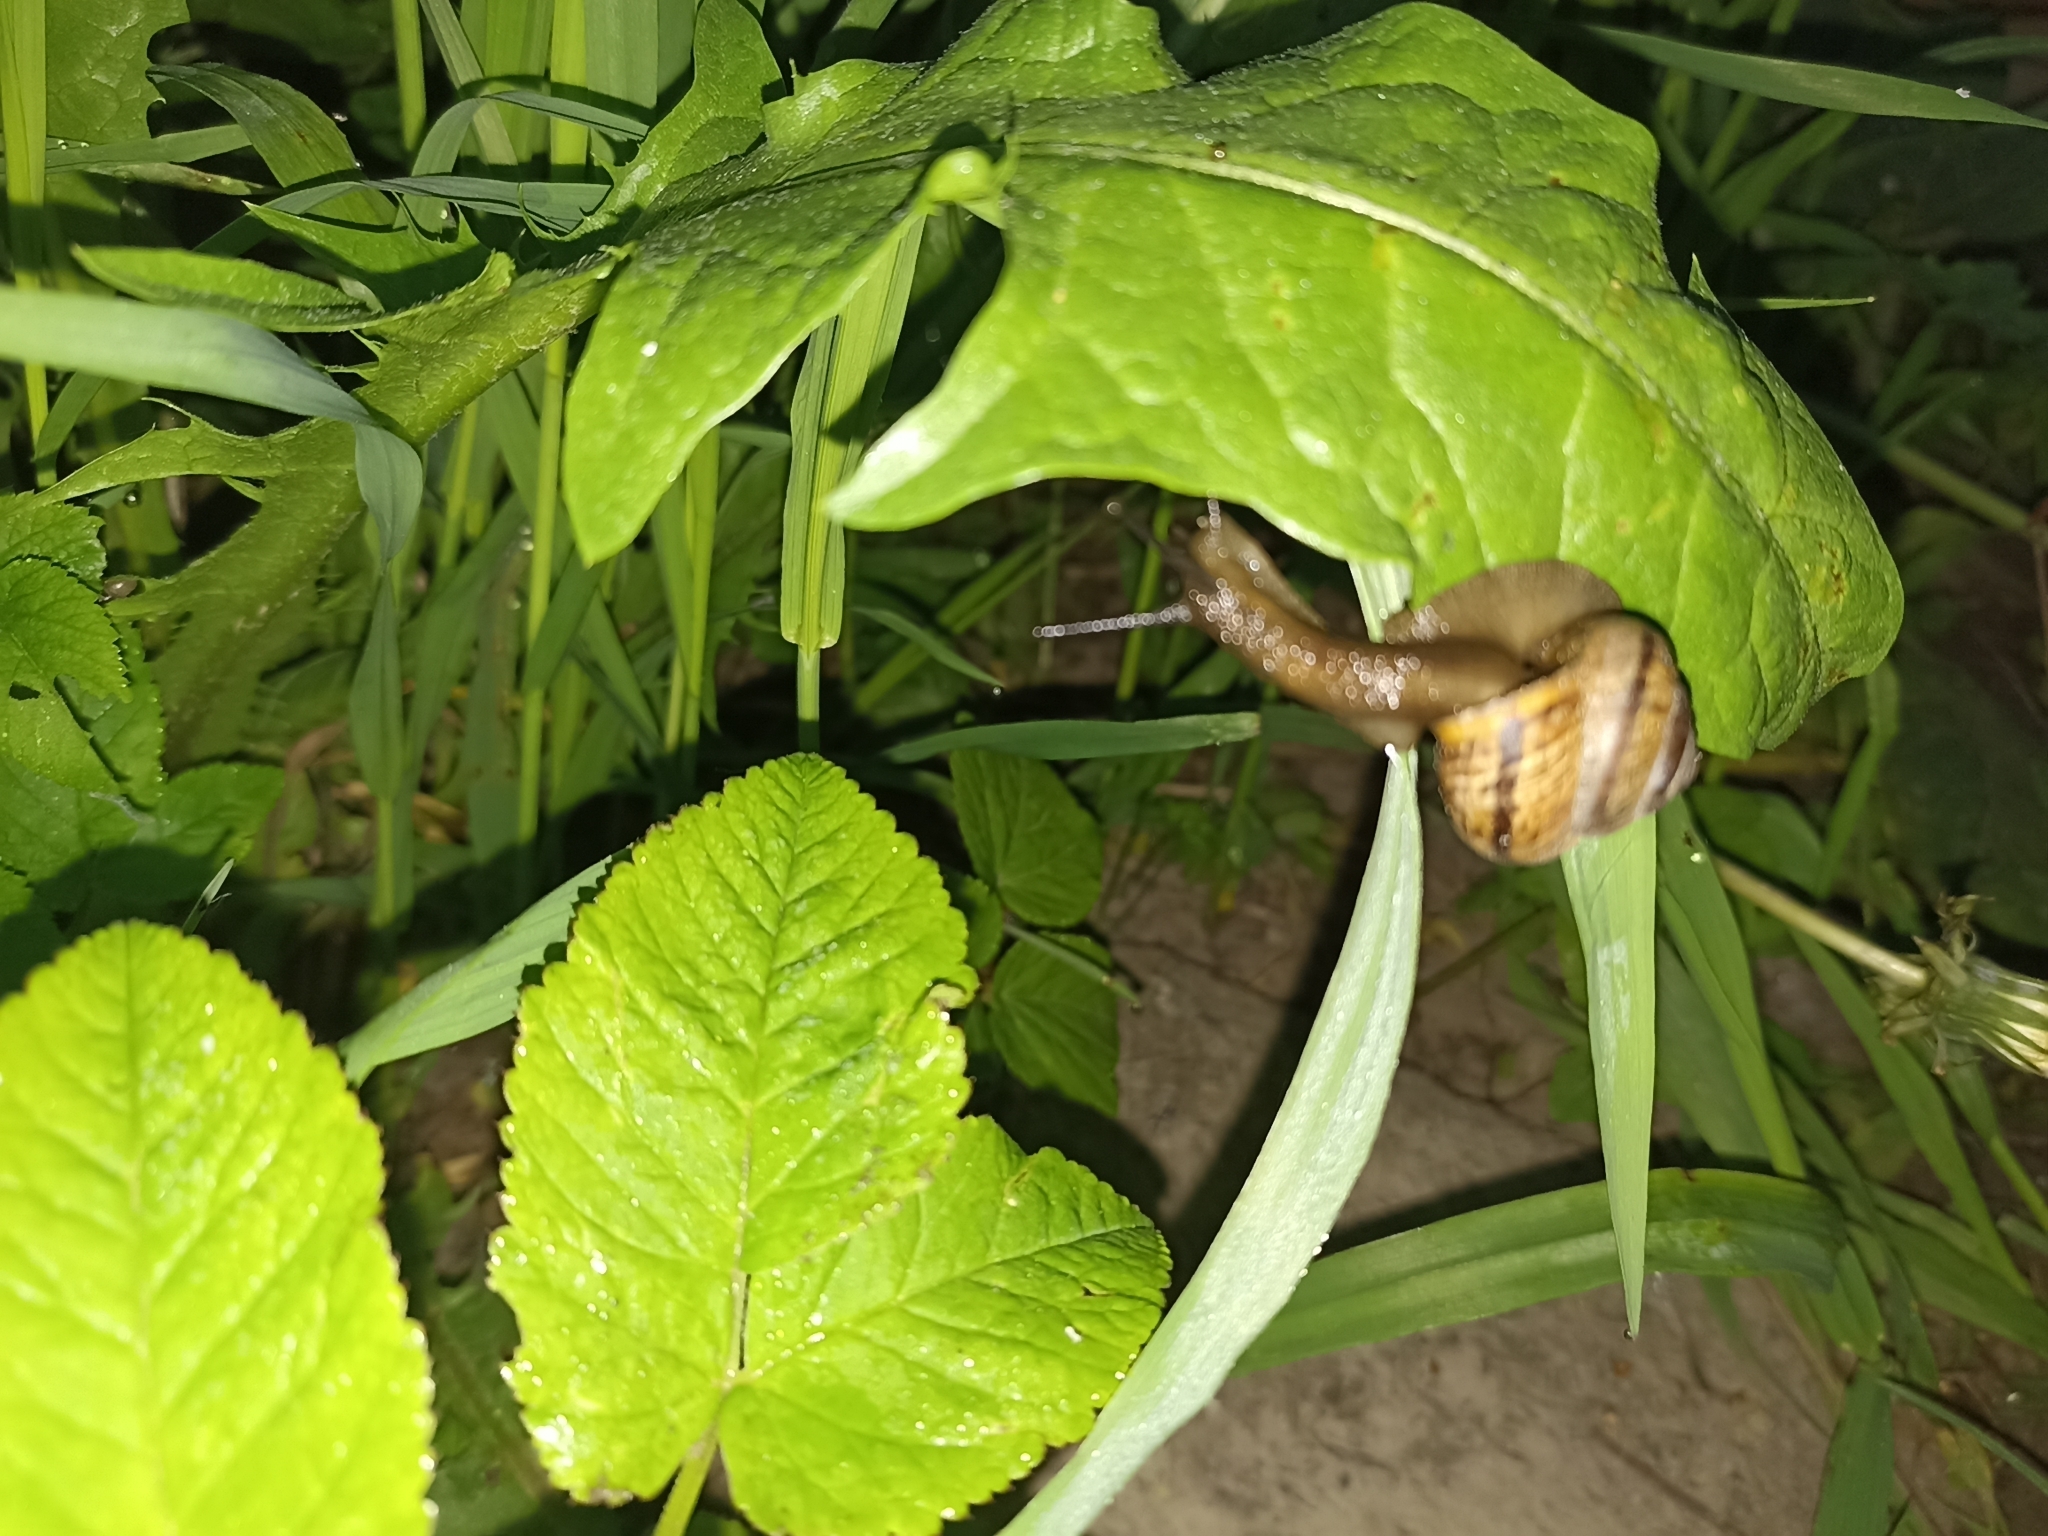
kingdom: Animalia
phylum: Mollusca
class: Gastropoda
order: Stylommatophora
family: Helicidae
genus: Arianta
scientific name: Arianta arbustorum
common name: Copse snail
